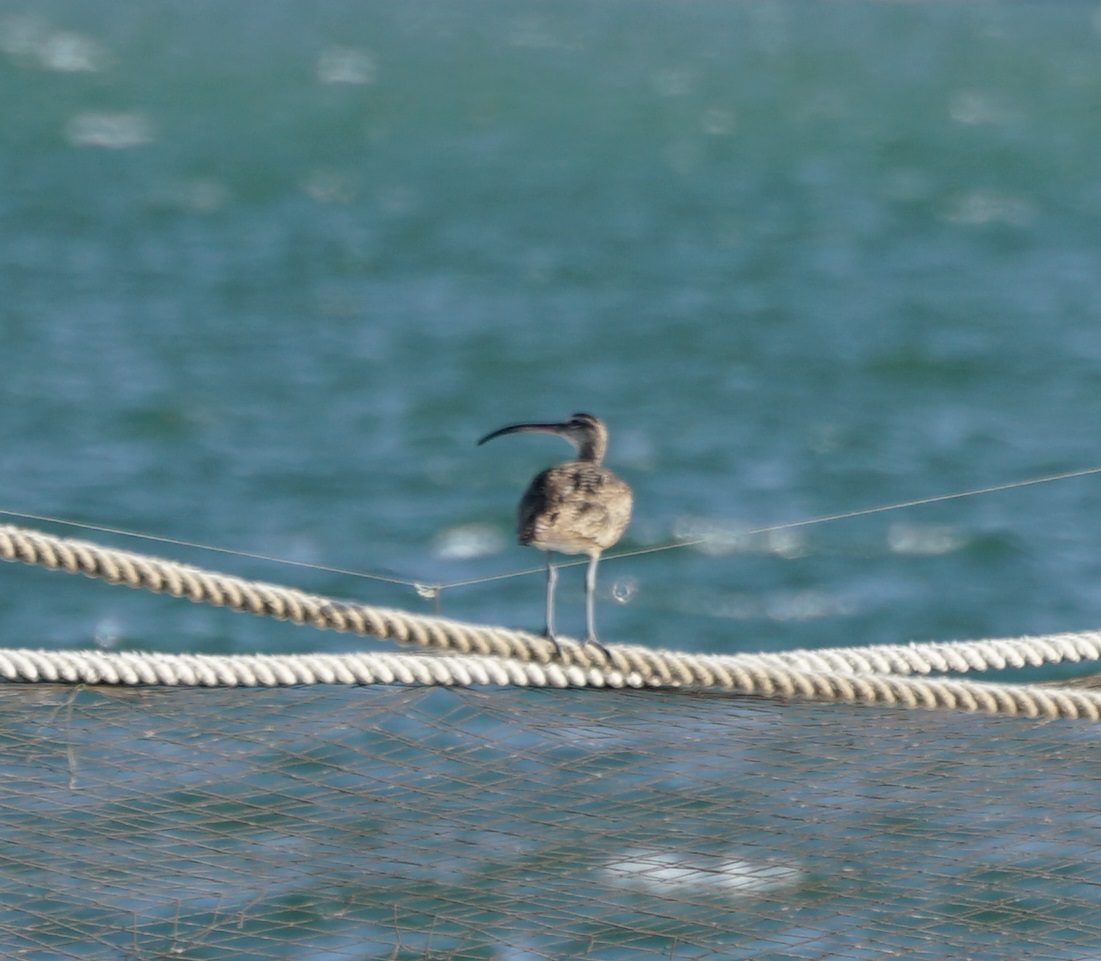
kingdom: Animalia
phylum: Chordata
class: Aves
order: Charadriiformes
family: Scolopacidae
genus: Numenius
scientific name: Numenius phaeopus
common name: Whimbrel
